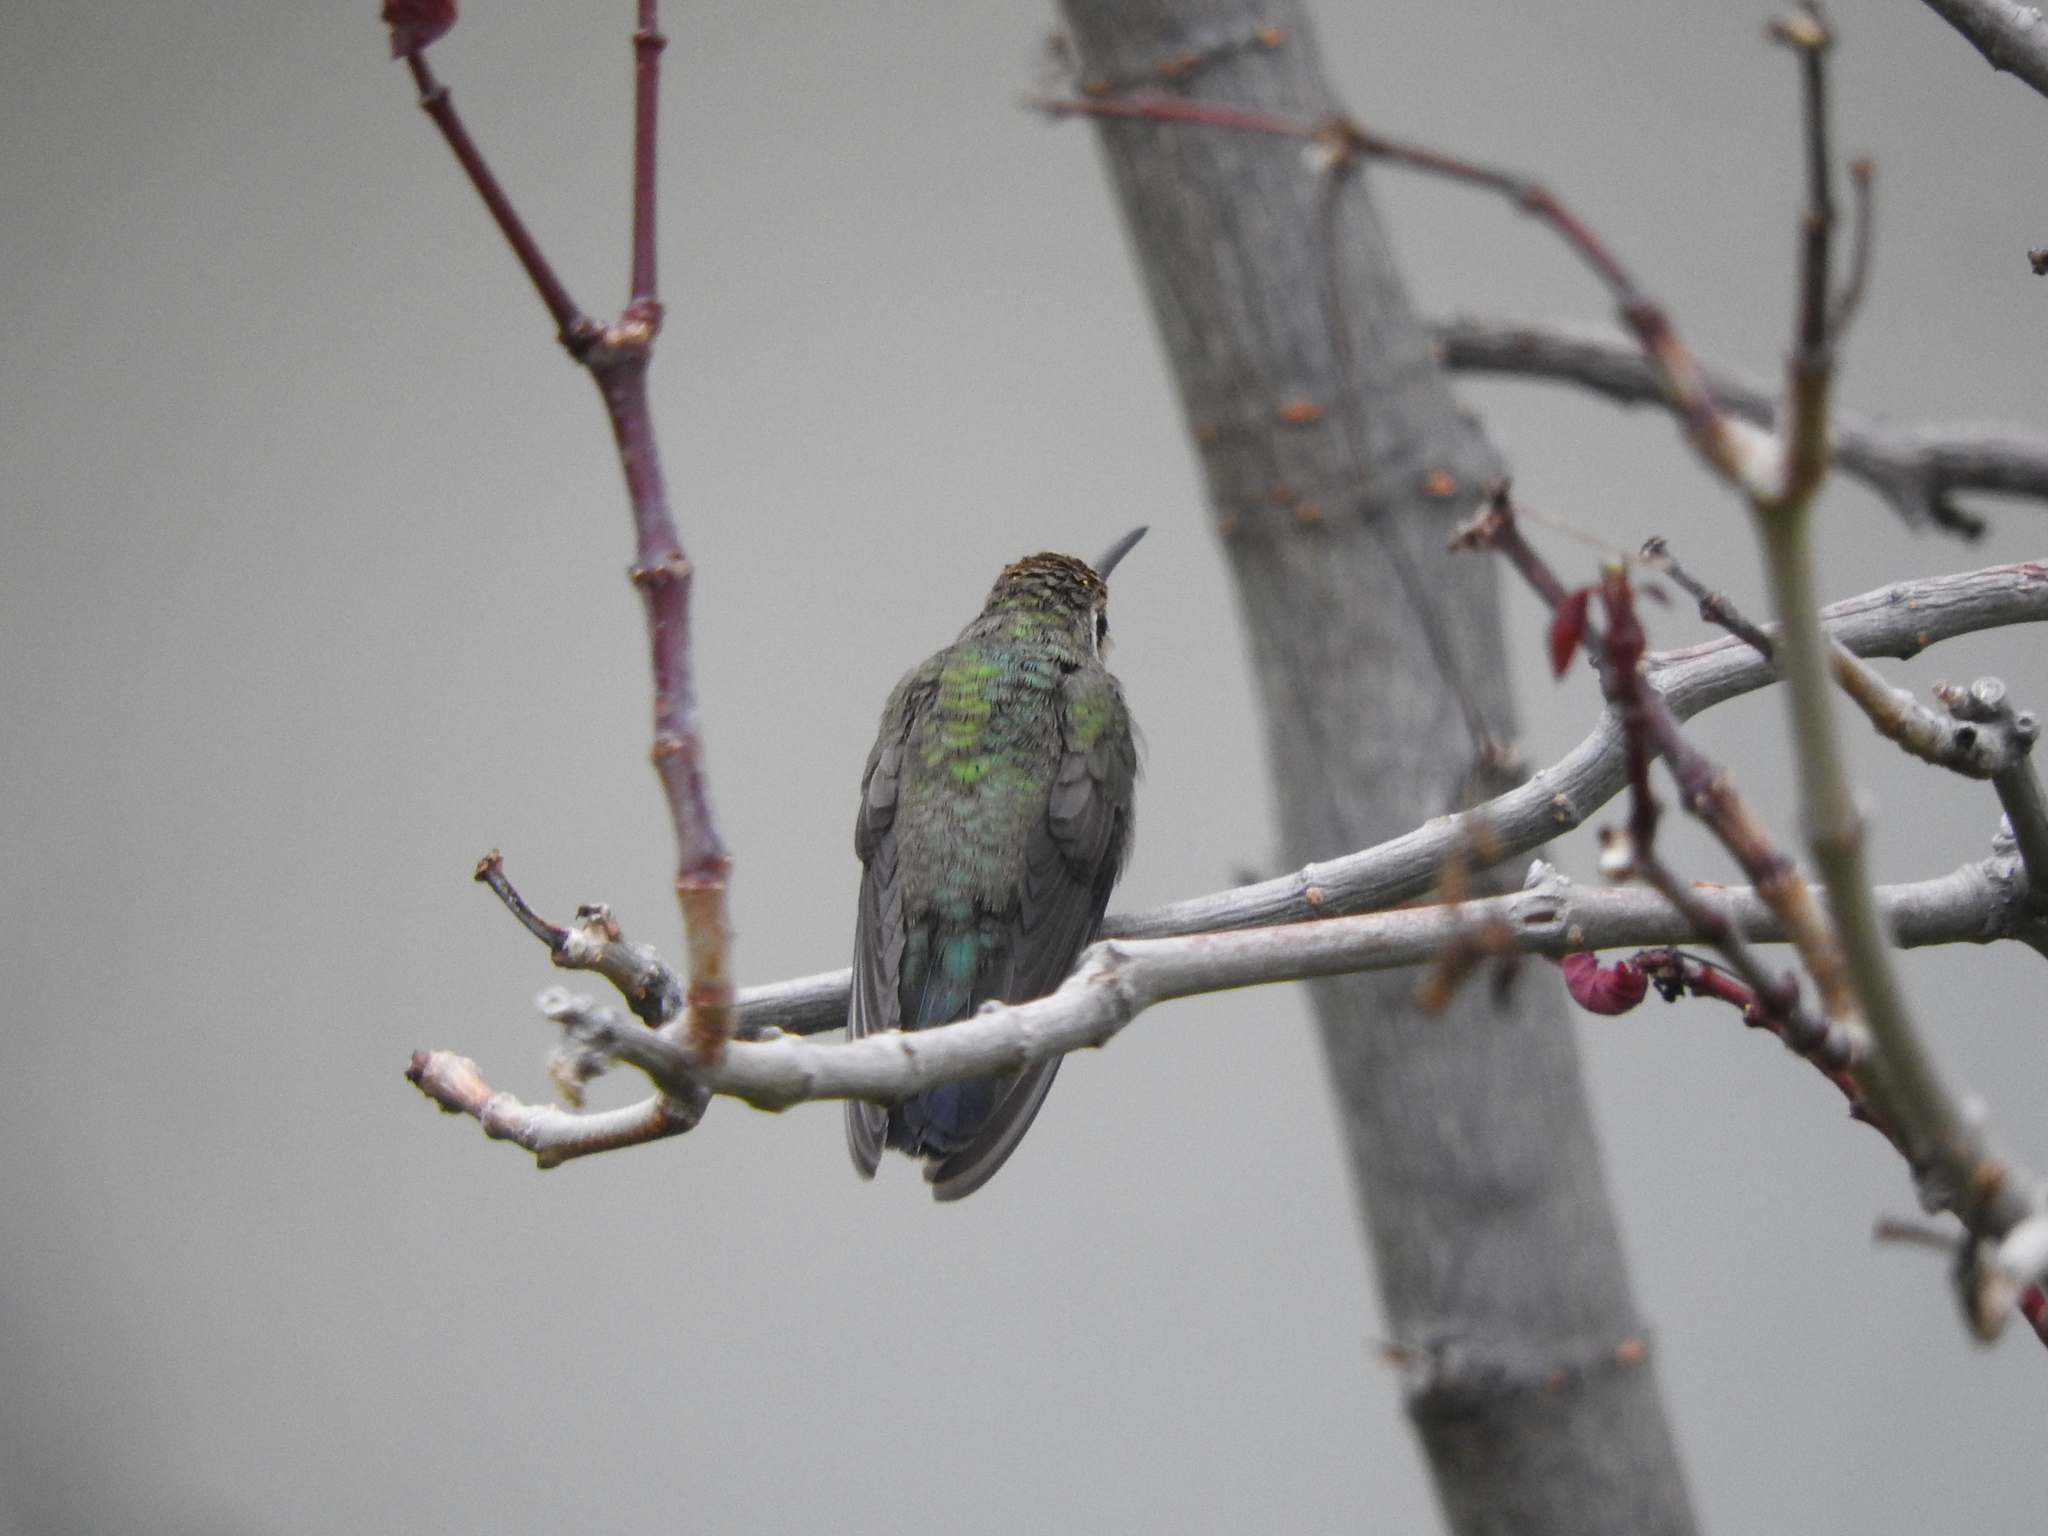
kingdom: Animalia
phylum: Chordata
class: Aves
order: Apodiformes
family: Trochilidae
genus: Cynanthus
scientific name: Cynanthus latirostris
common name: Broad-billed hummingbird
